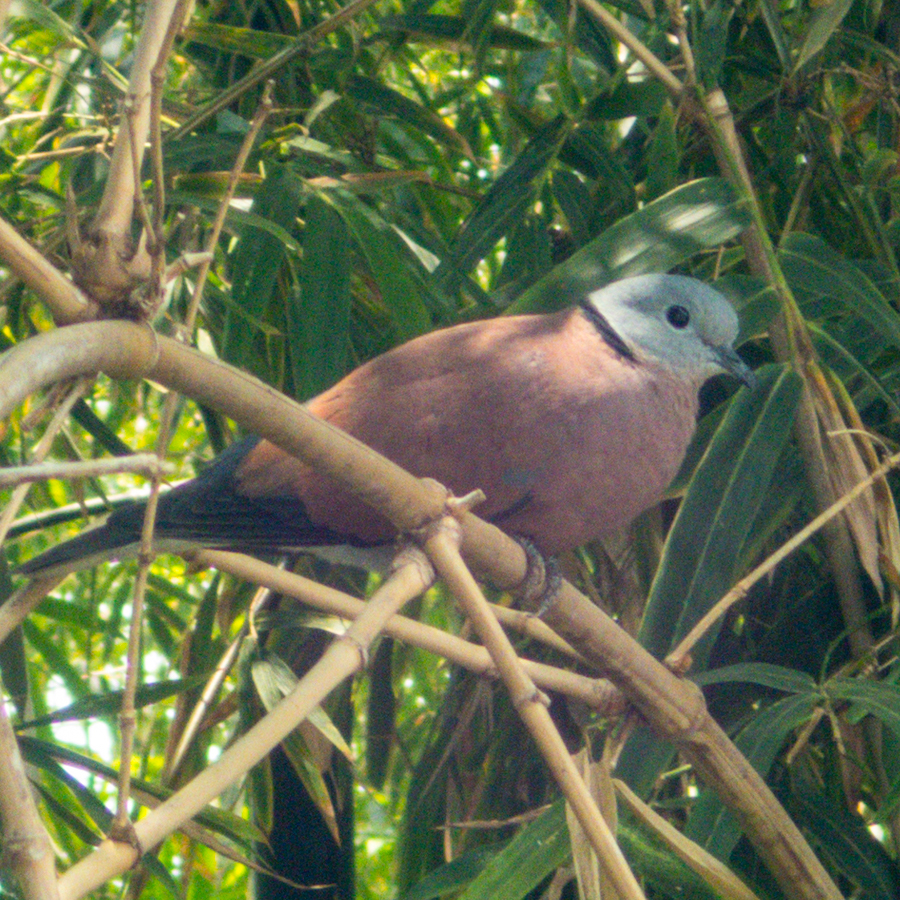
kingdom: Animalia
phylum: Chordata
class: Aves
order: Columbiformes
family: Columbidae
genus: Streptopelia
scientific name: Streptopelia tranquebarica
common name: Red turtle dove
